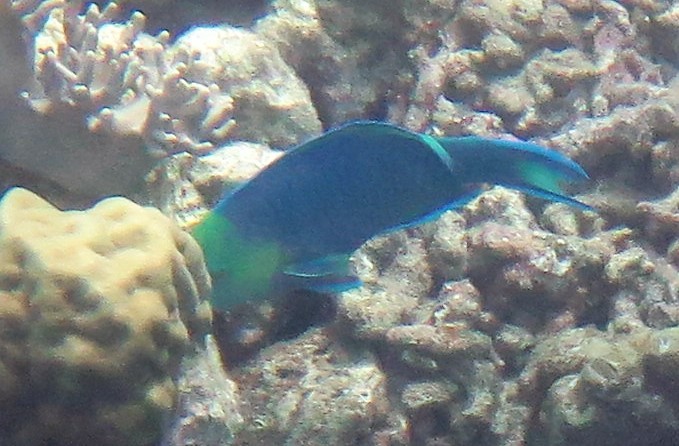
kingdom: Animalia
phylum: Chordata
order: Perciformes
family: Scaridae
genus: Scarus
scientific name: Scarus spinus
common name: Greensnout parrotfish
